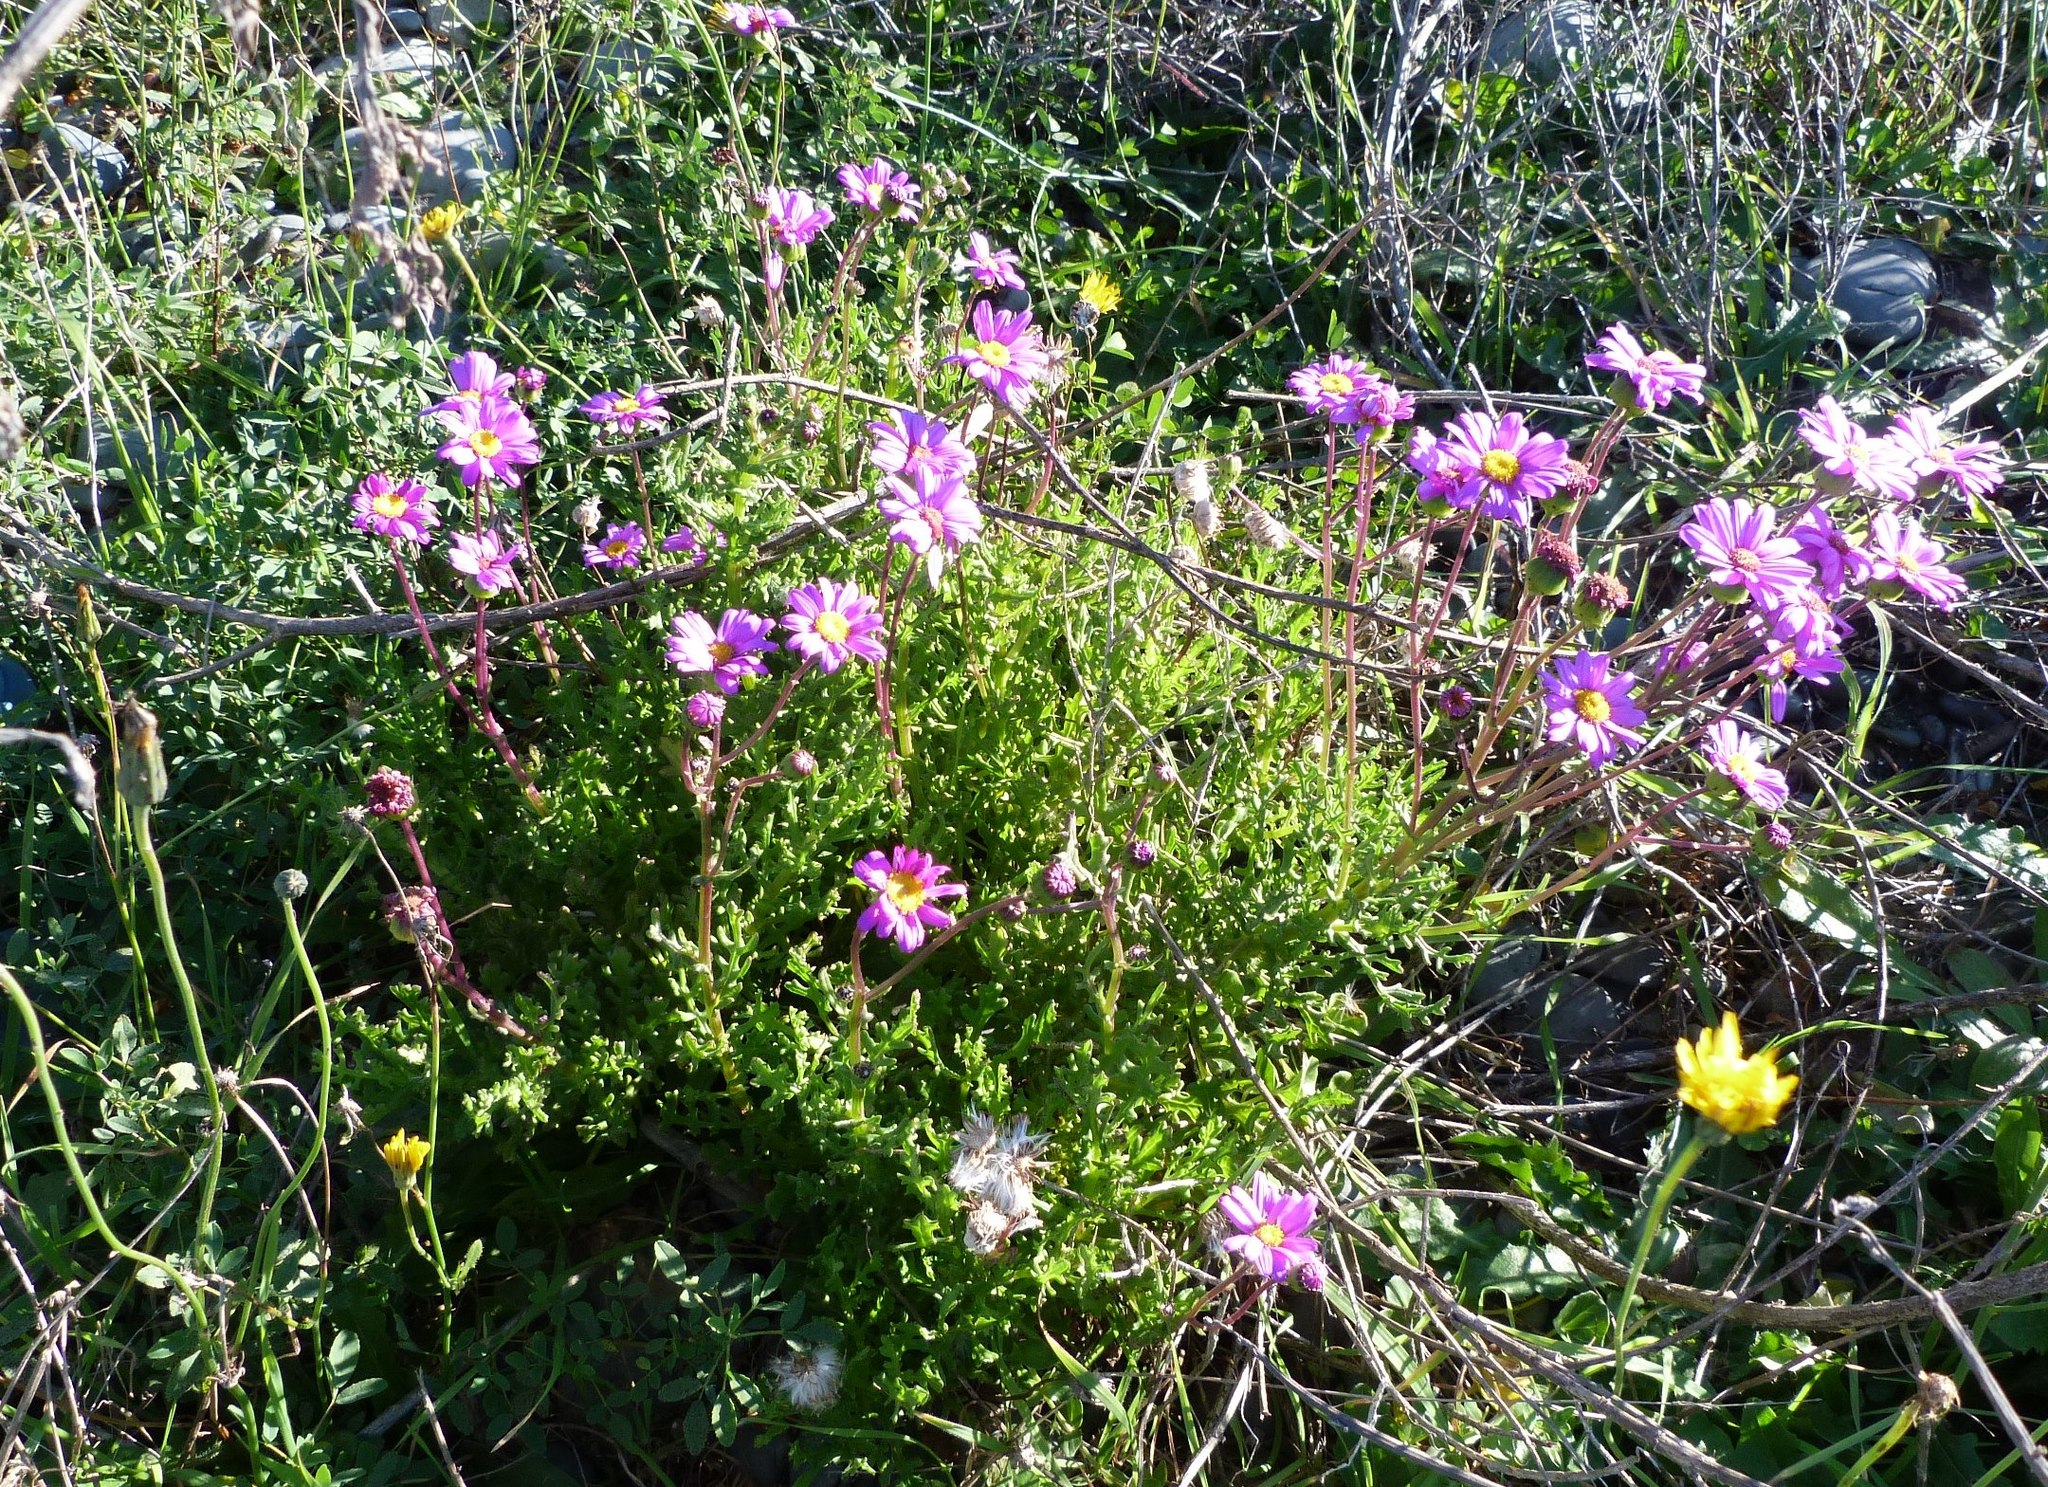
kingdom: Plantae
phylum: Tracheophyta
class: Magnoliopsida
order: Asterales
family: Asteraceae
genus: Senecio
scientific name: Senecio elegans
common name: Purple groundsel
